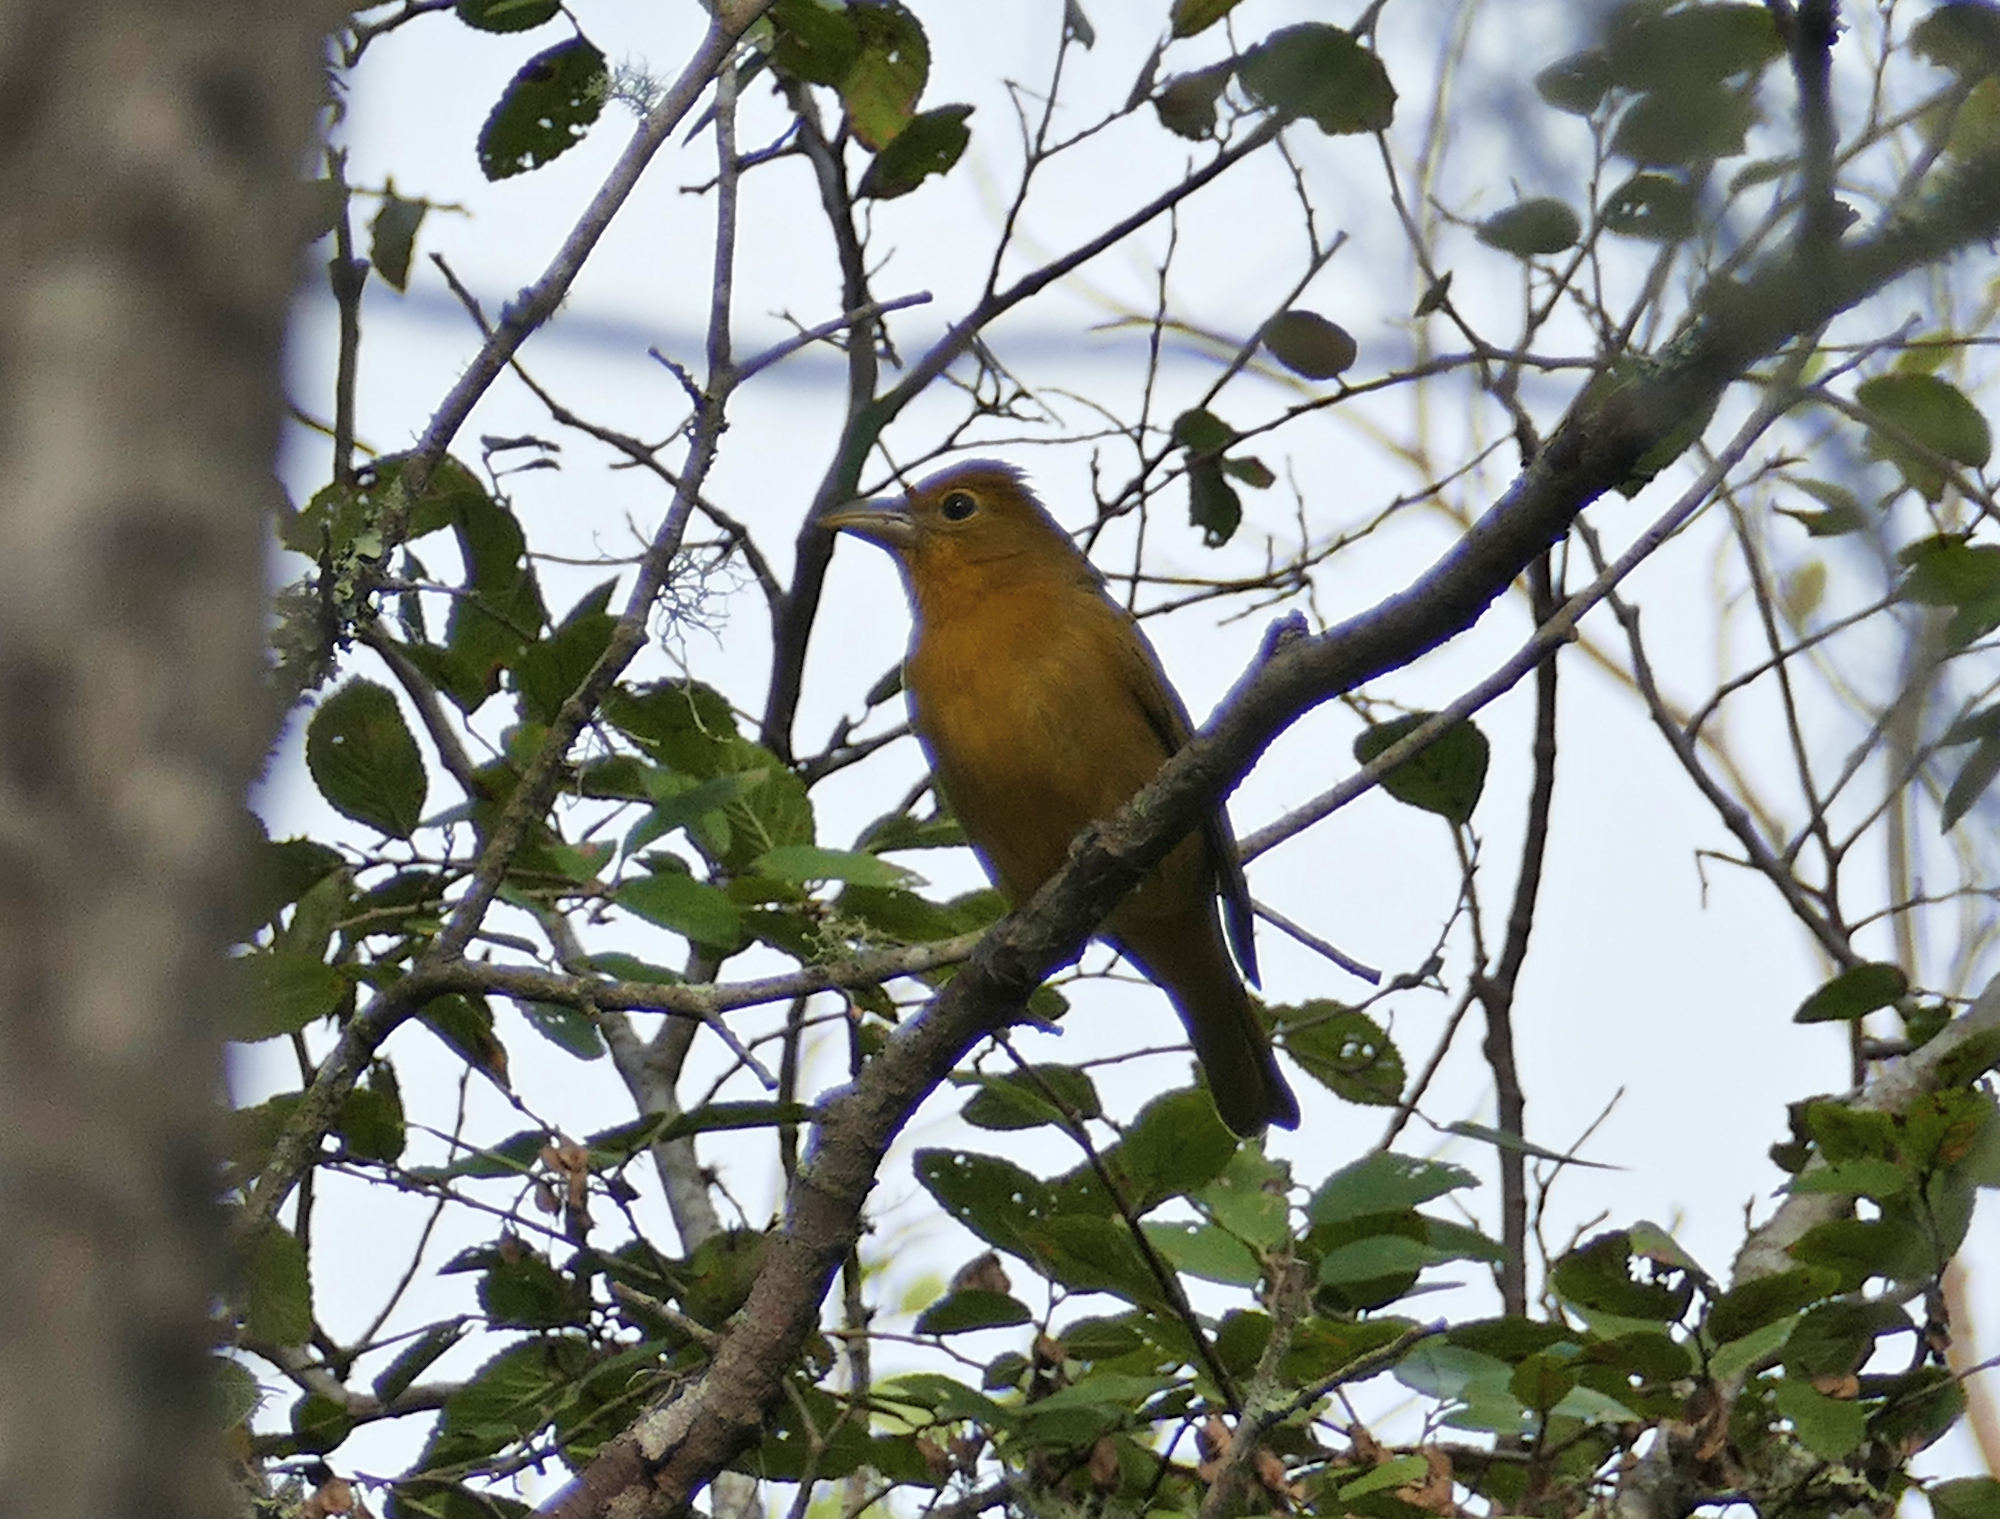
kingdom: Animalia
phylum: Chordata
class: Aves
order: Passeriformes
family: Cardinalidae
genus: Piranga
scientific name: Piranga rubra
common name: Summer tanager
